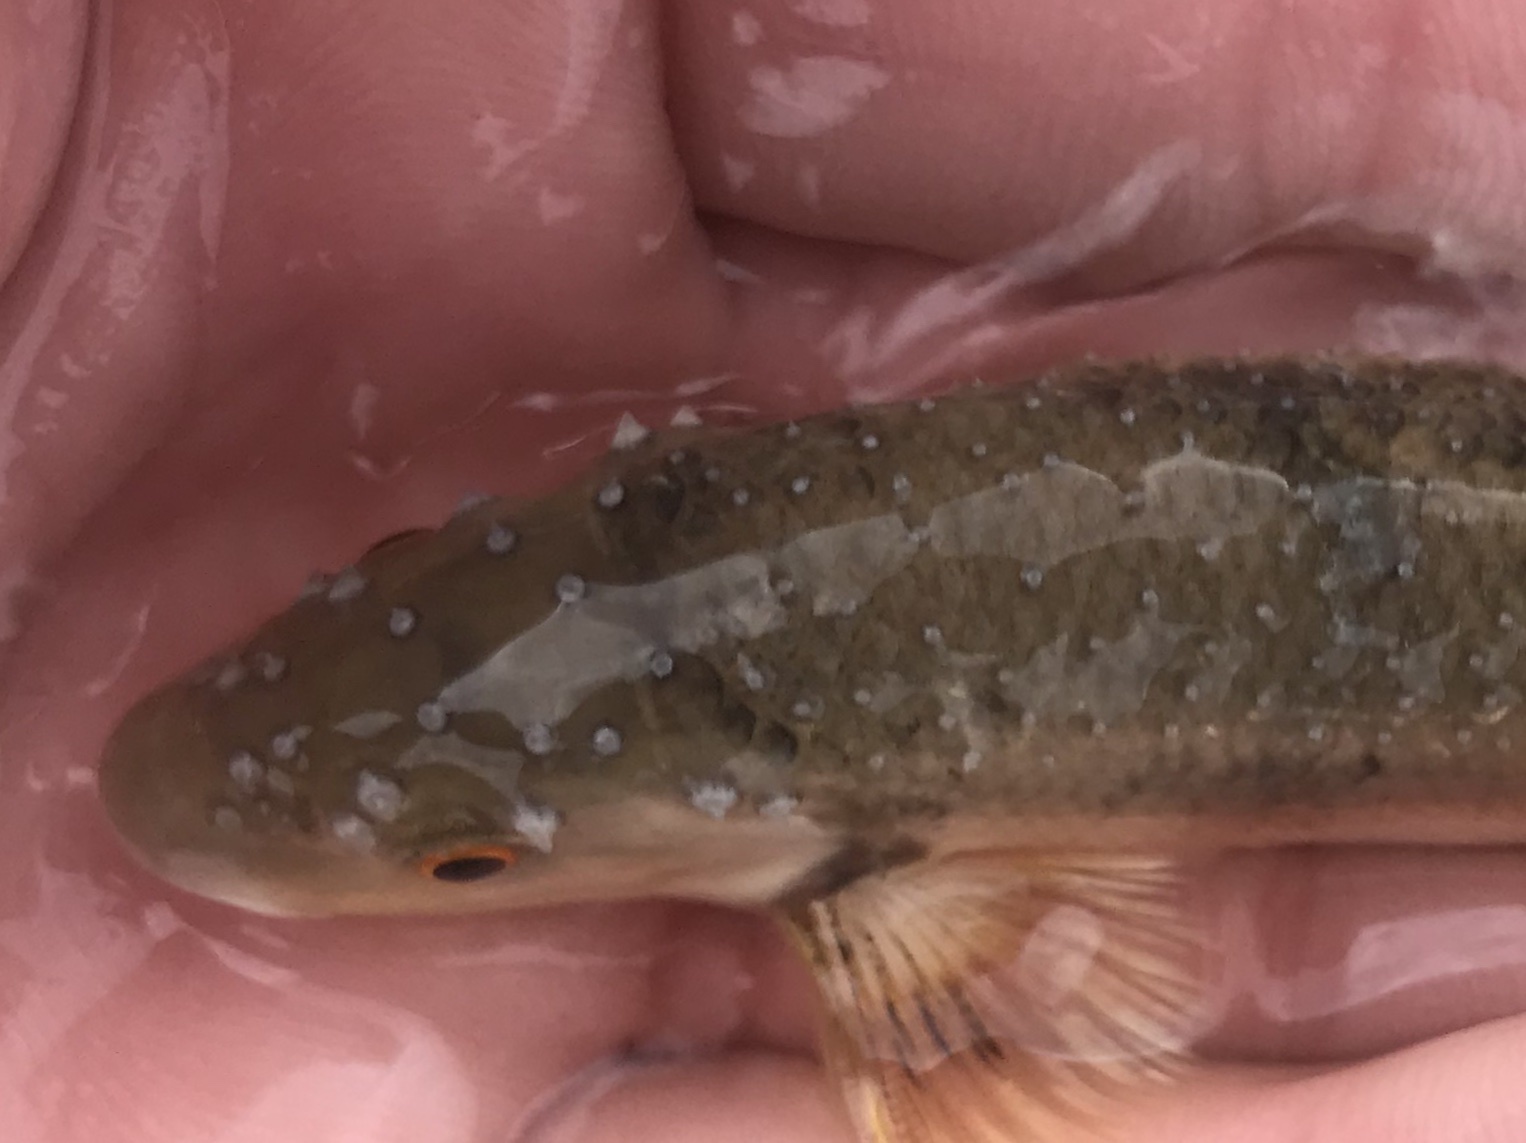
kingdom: Animalia
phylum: Chordata
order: Cypriniformes
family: Cyprinidae
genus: Campostoma
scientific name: Campostoma anomalum
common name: Central stoneroller
